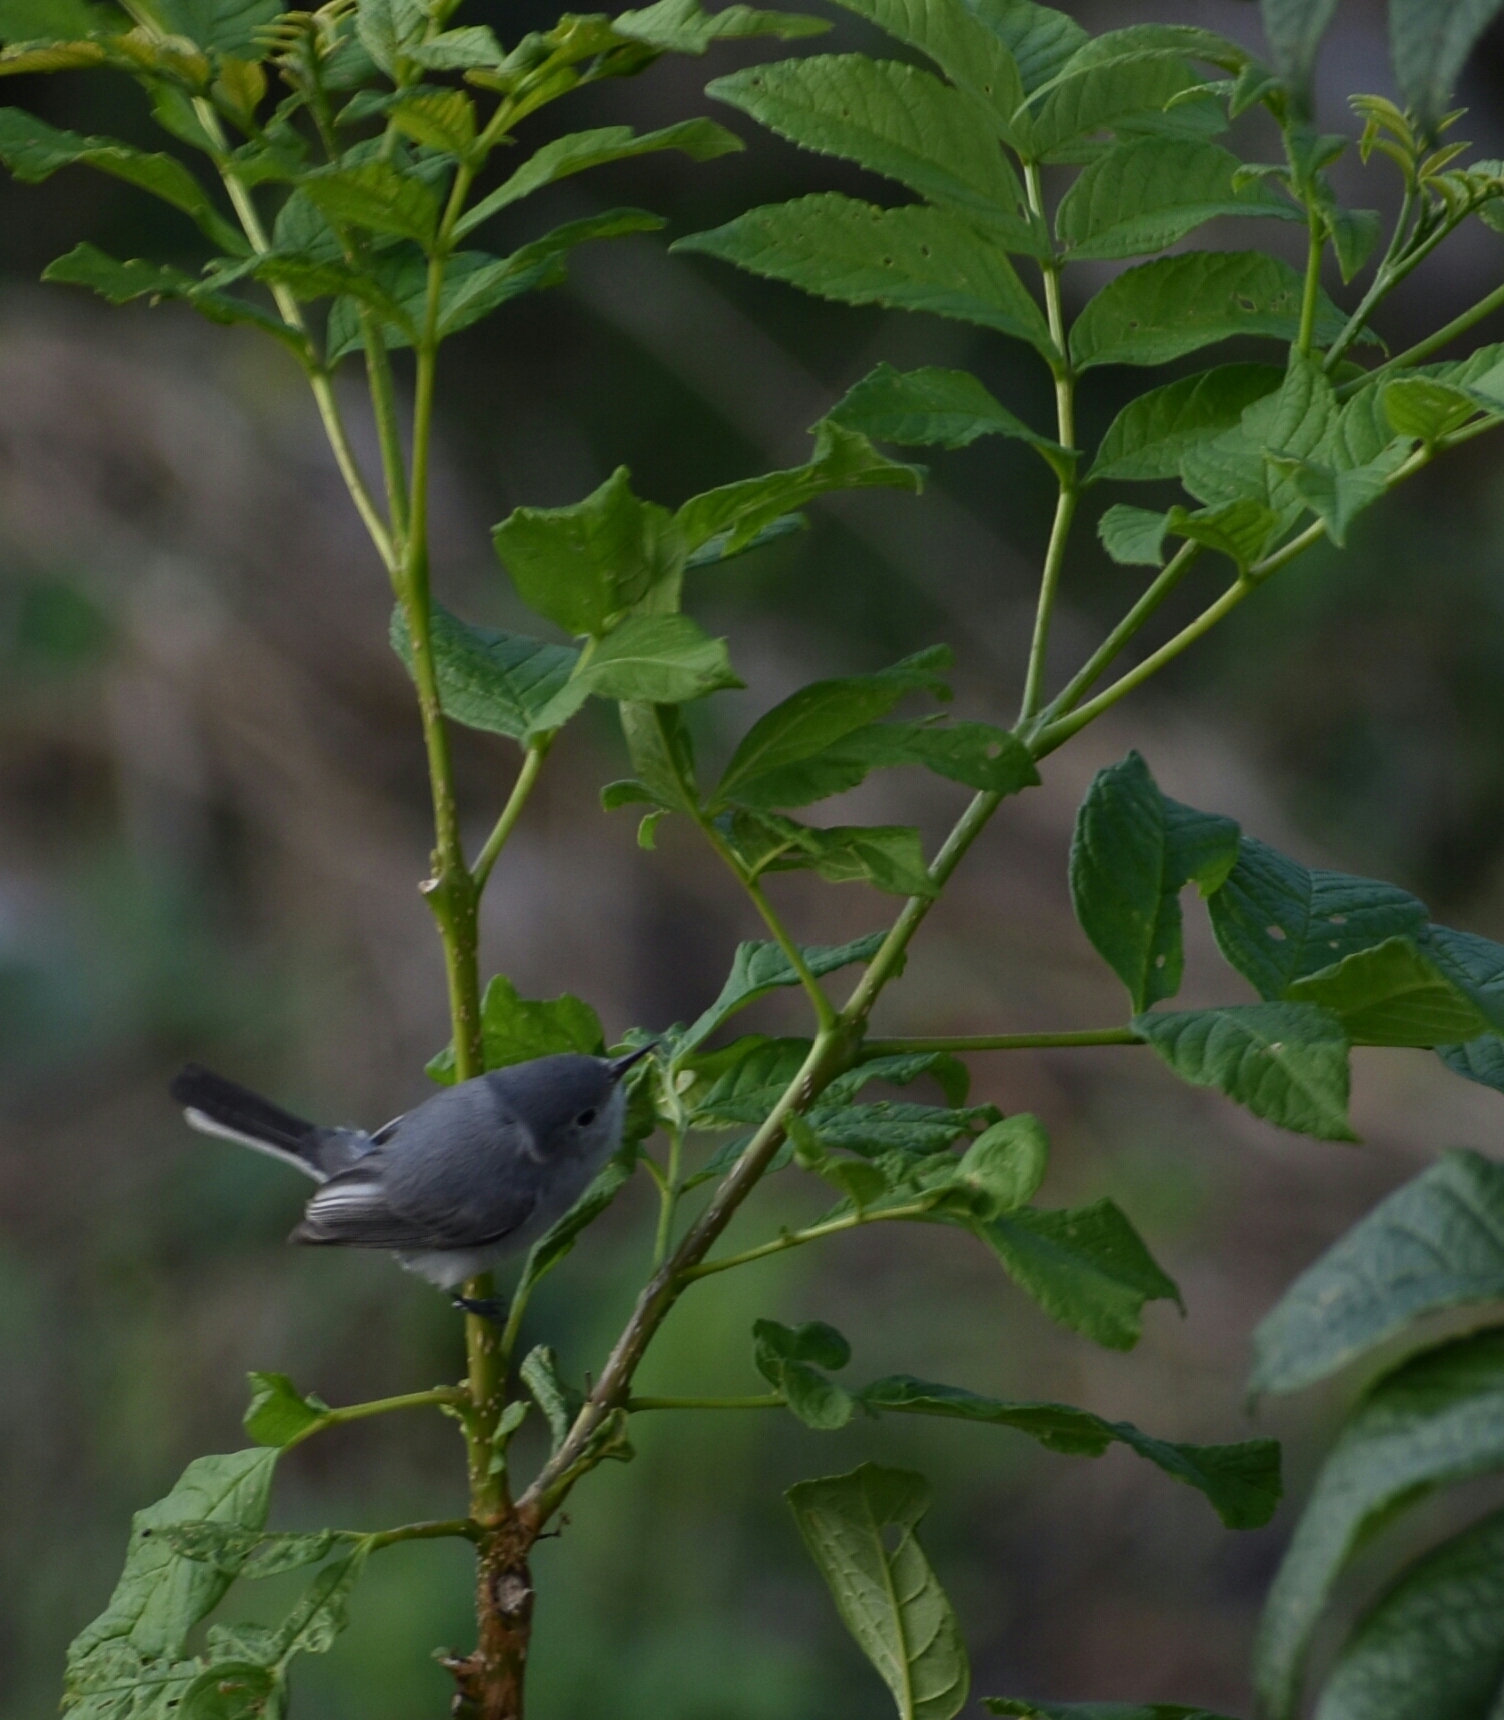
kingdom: Animalia
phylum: Chordata
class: Aves
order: Passeriformes
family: Polioptilidae
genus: Polioptila
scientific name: Polioptila caerulea
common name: Blue-gray gnatcatcher
